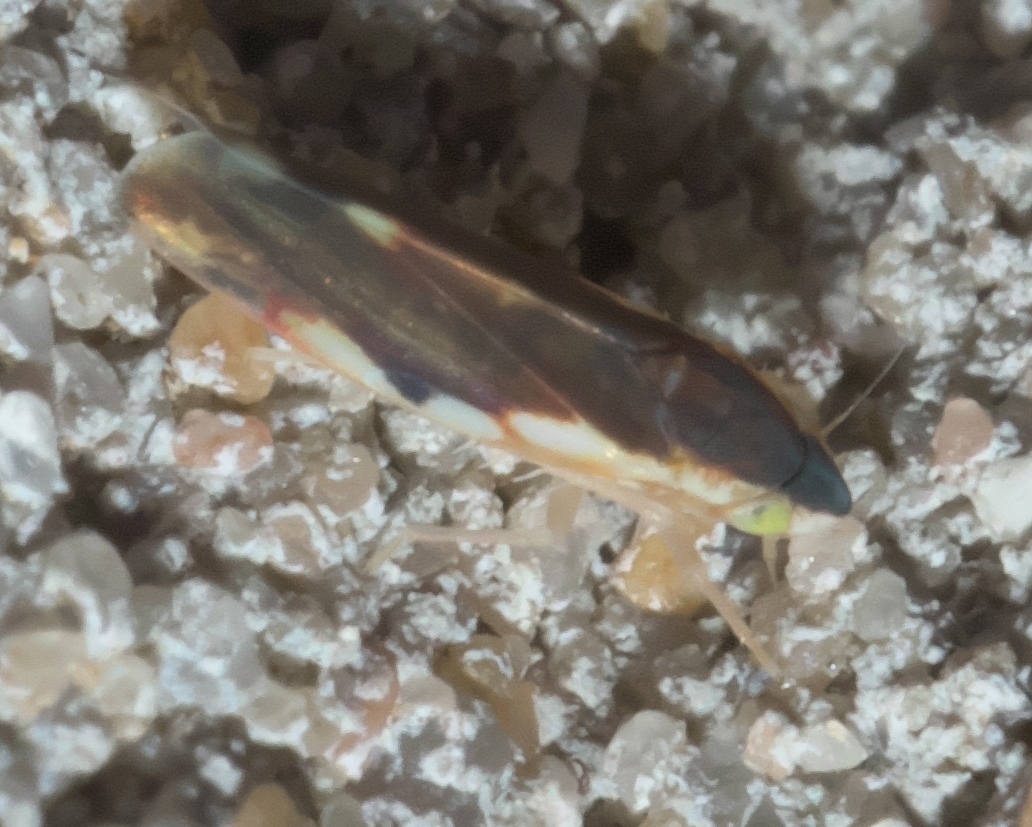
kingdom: Animalia
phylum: Arthropoda
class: Insecta
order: Hemiptera
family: Cicadellidae
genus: Erythroneura
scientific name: Erythroneura aclys
